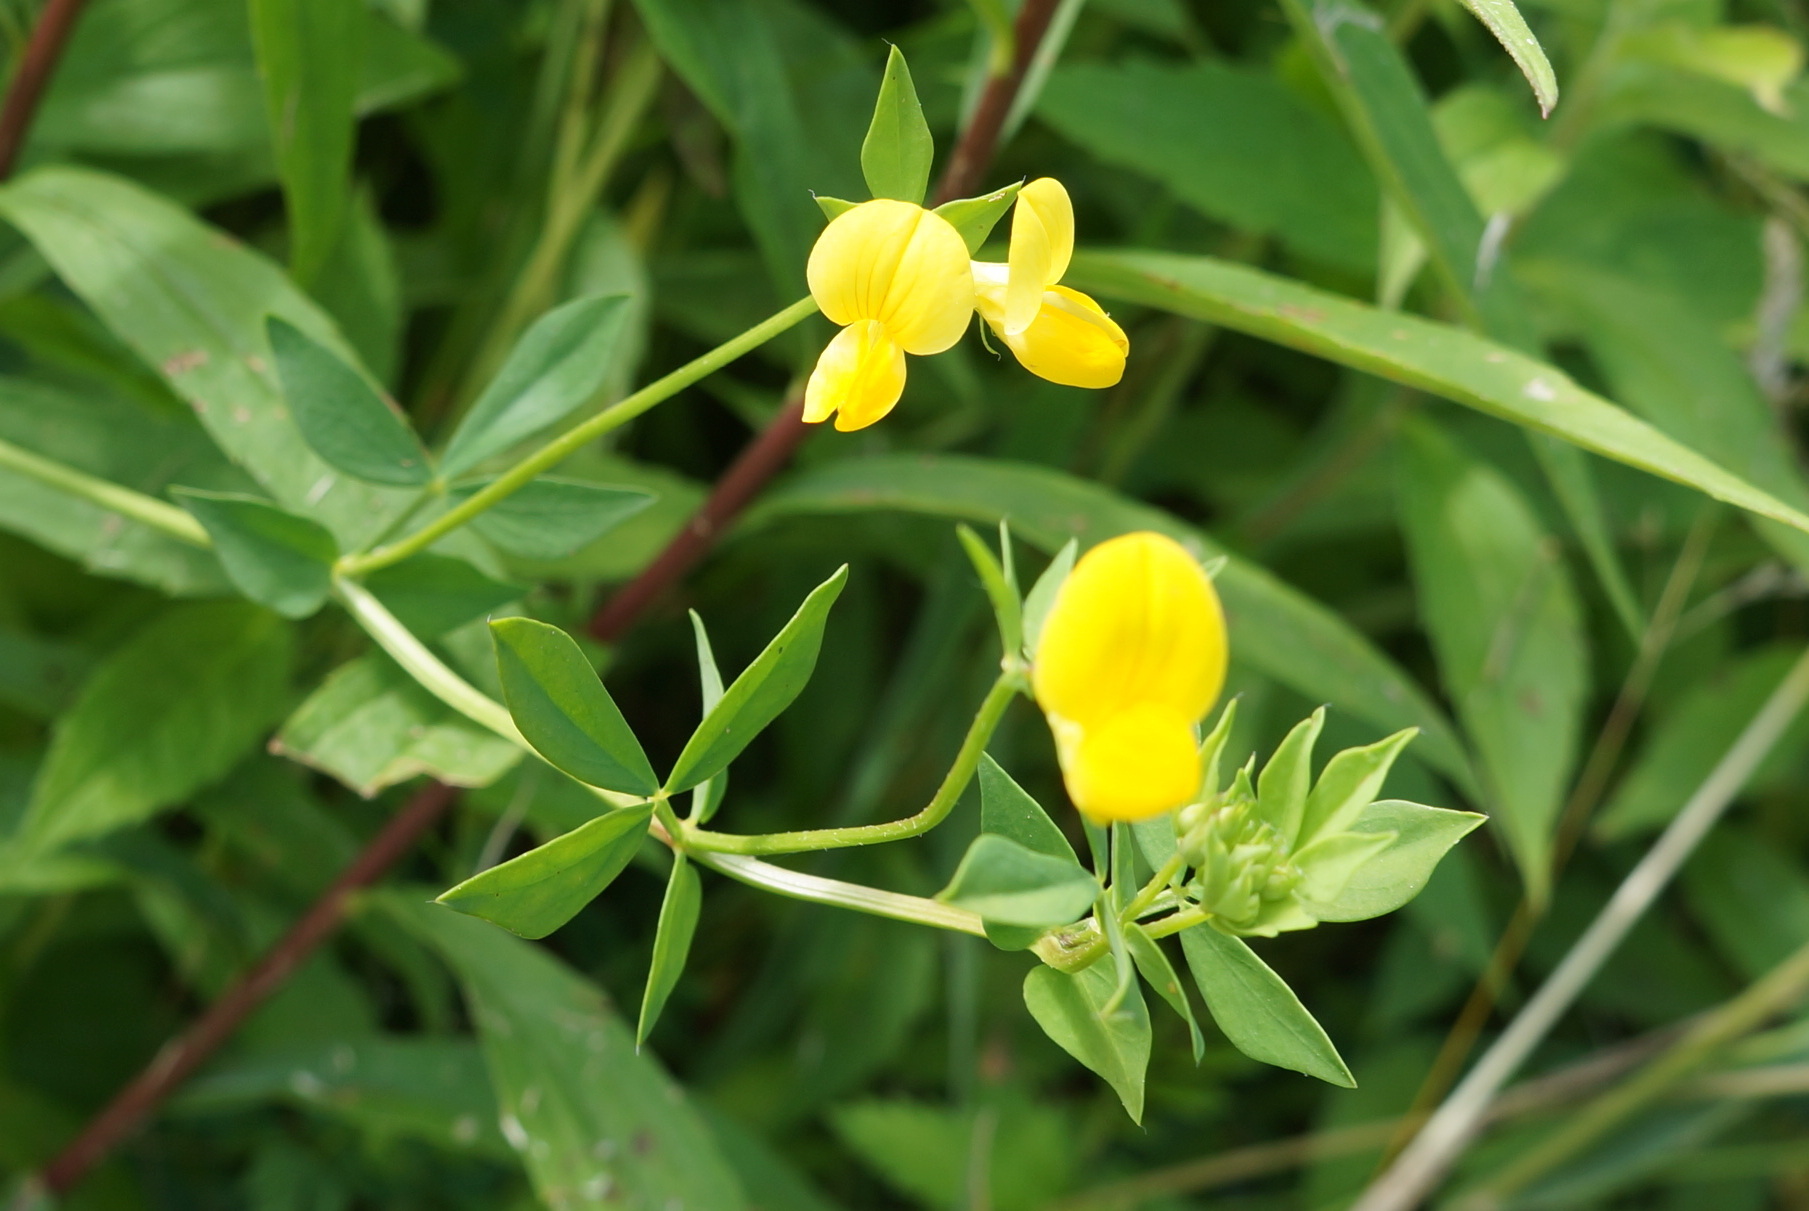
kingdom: Plantae
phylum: Tracheophyta
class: Magnoliopsida
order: Fabales
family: Fabaceae
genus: Lotus
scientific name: Lotus corniculatus
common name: Common bird's-foot-trefoil
